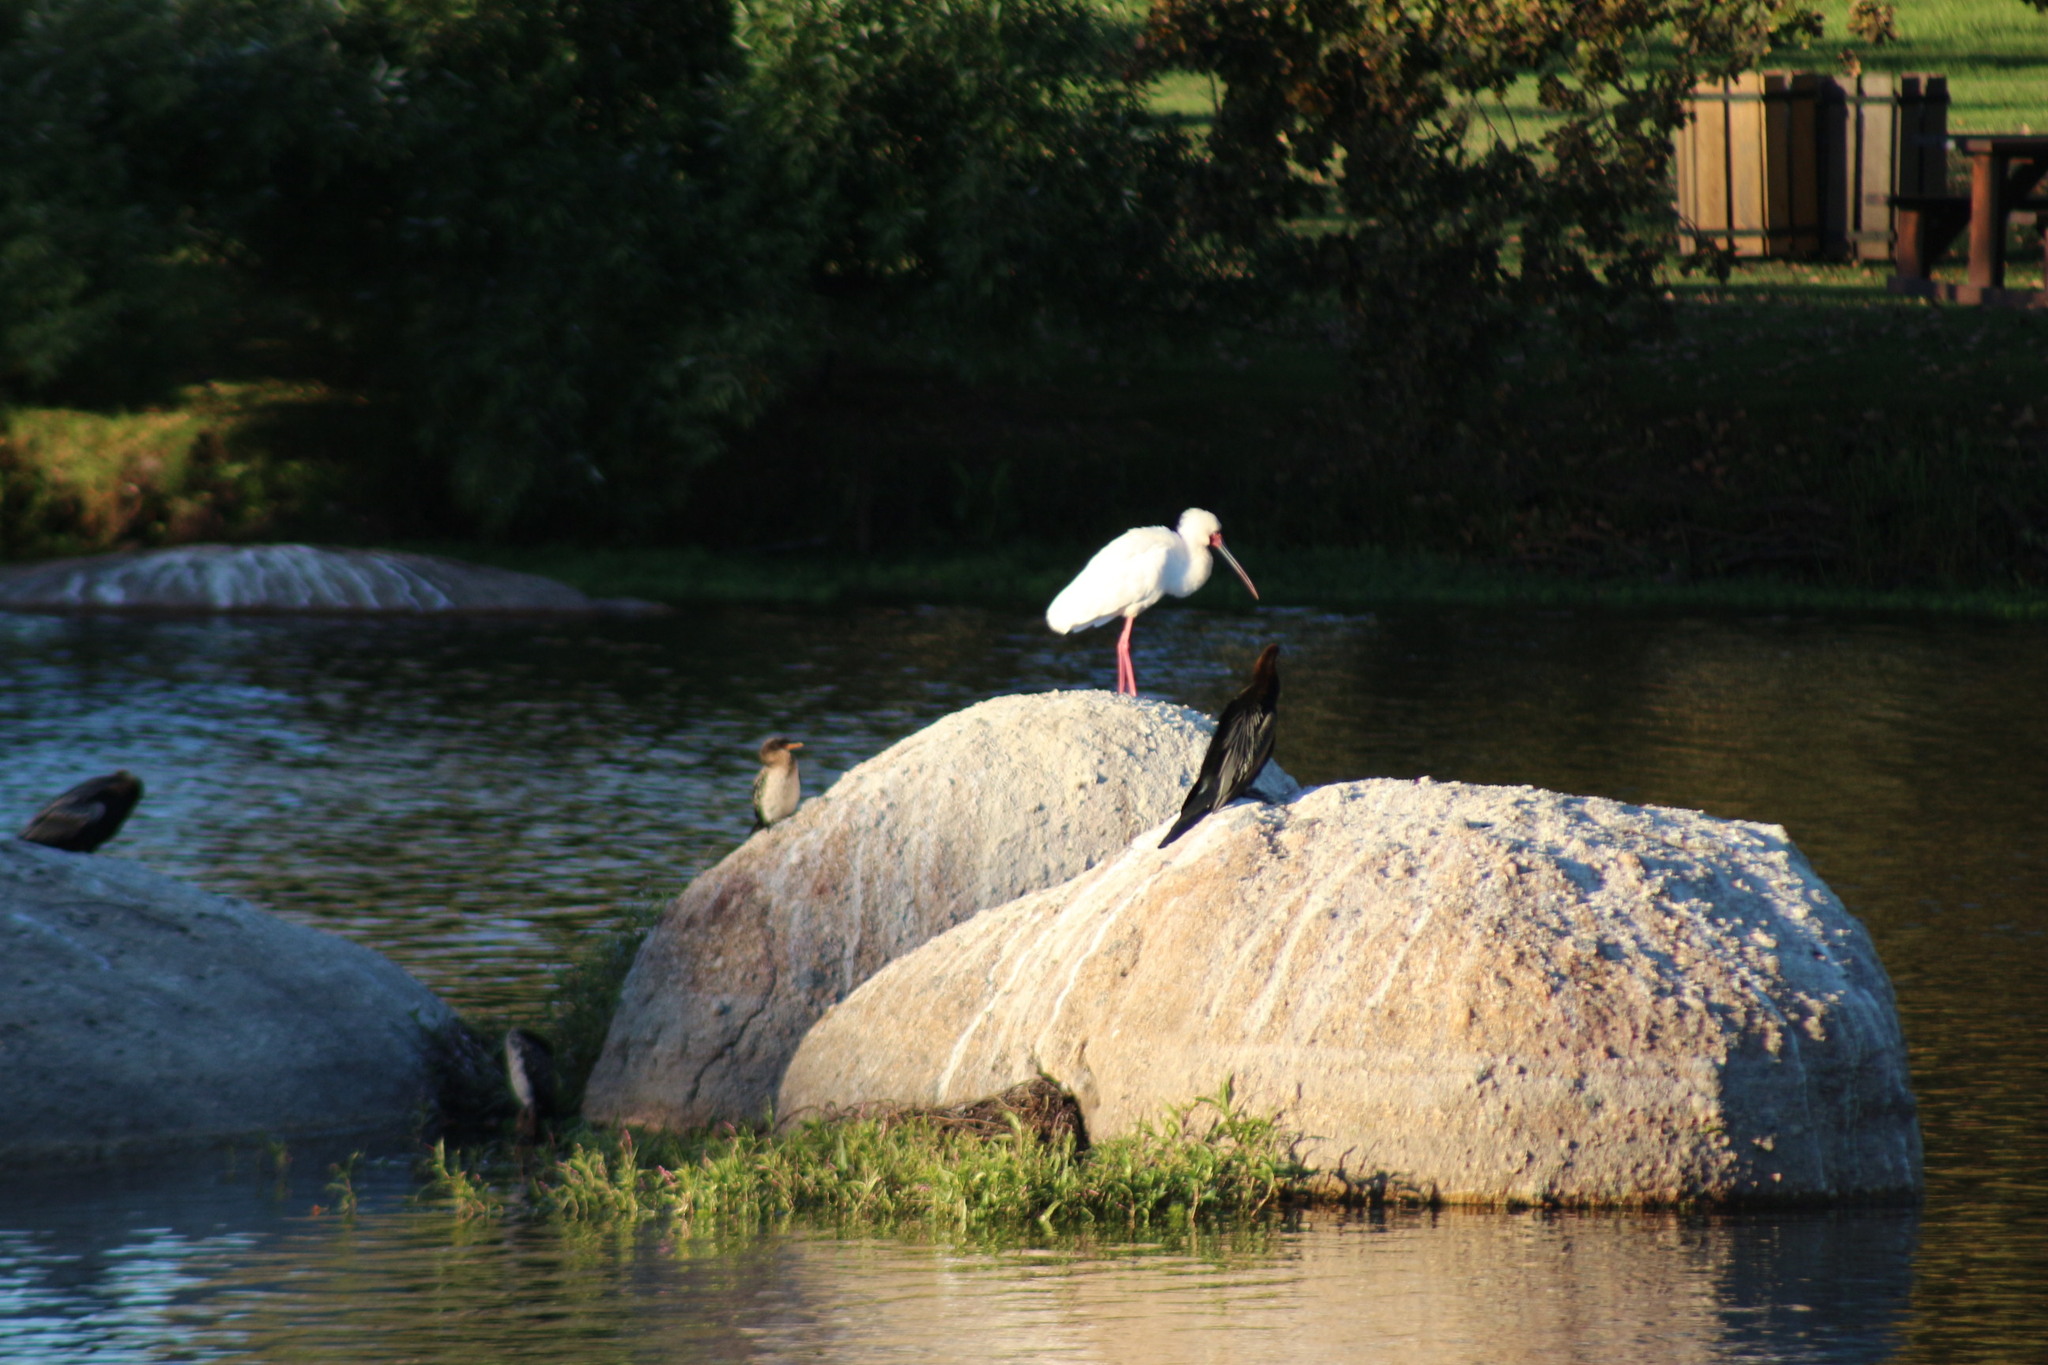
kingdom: Animalia
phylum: Chordata
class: Aves
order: Suliformes
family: Anhingidae
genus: Anhinga
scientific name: Anhinga rufa
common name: African darter
